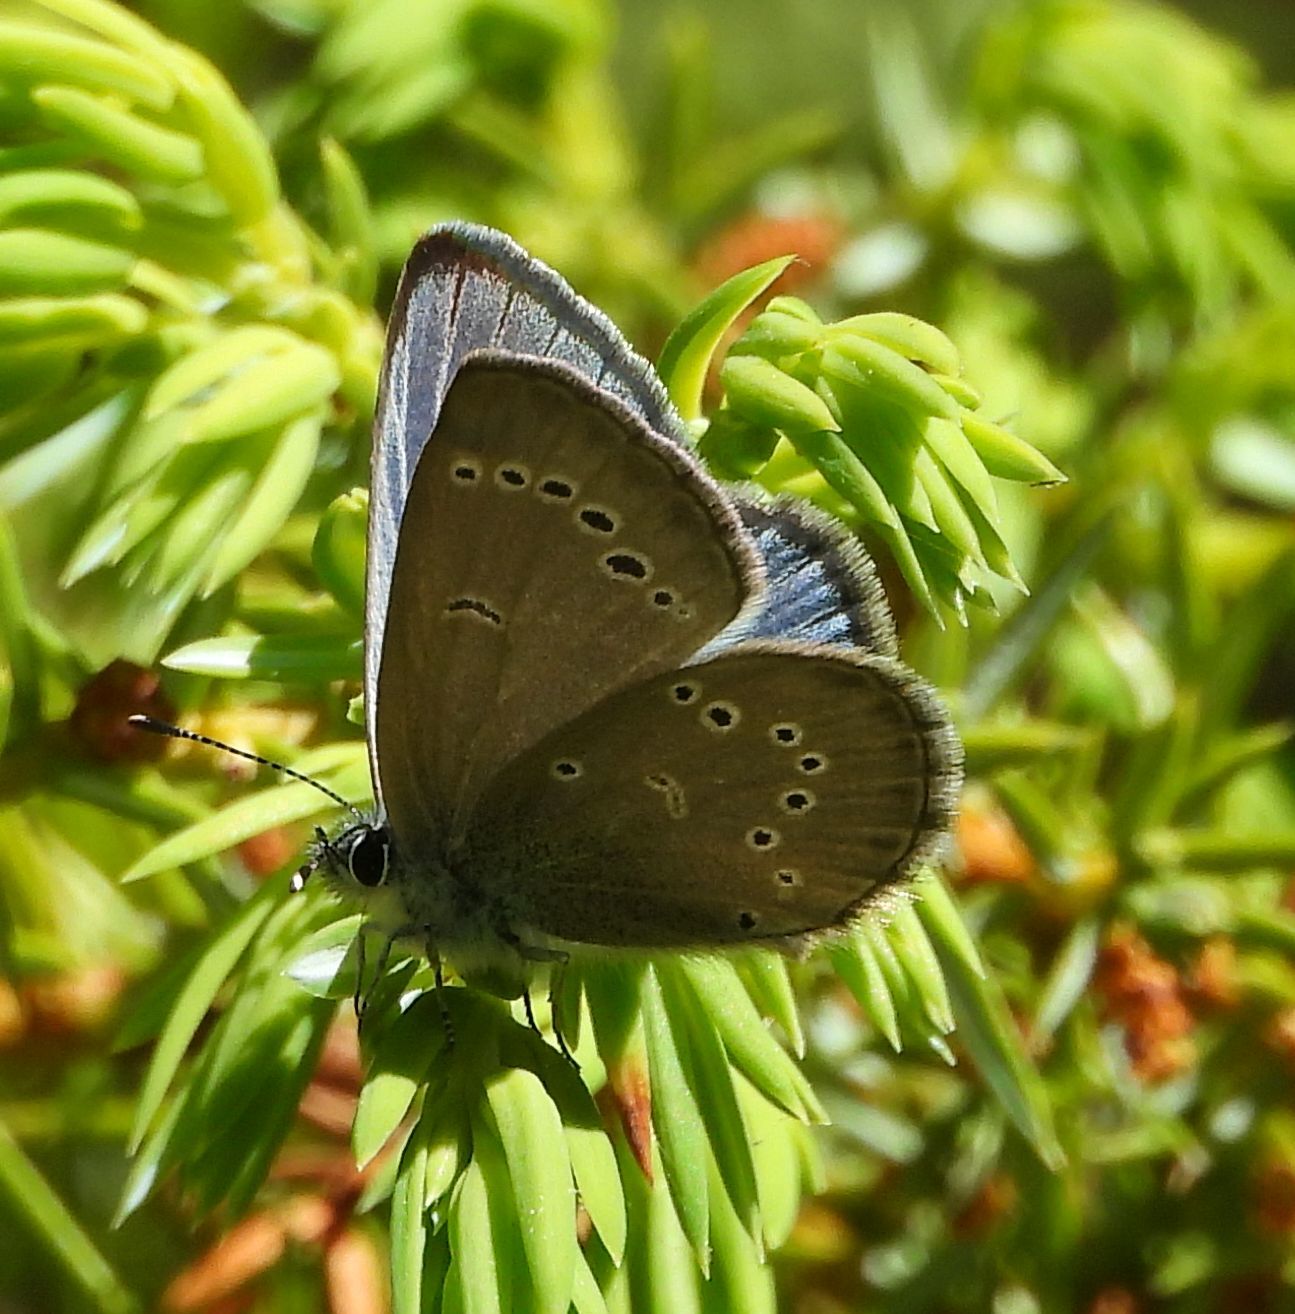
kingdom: Animalia
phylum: Arthropoda
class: Insecta
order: Lepidoptera
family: Lycaenidae
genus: Glaucopsyche
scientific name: Glaucopsyche lygdamus
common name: Silvery blue
